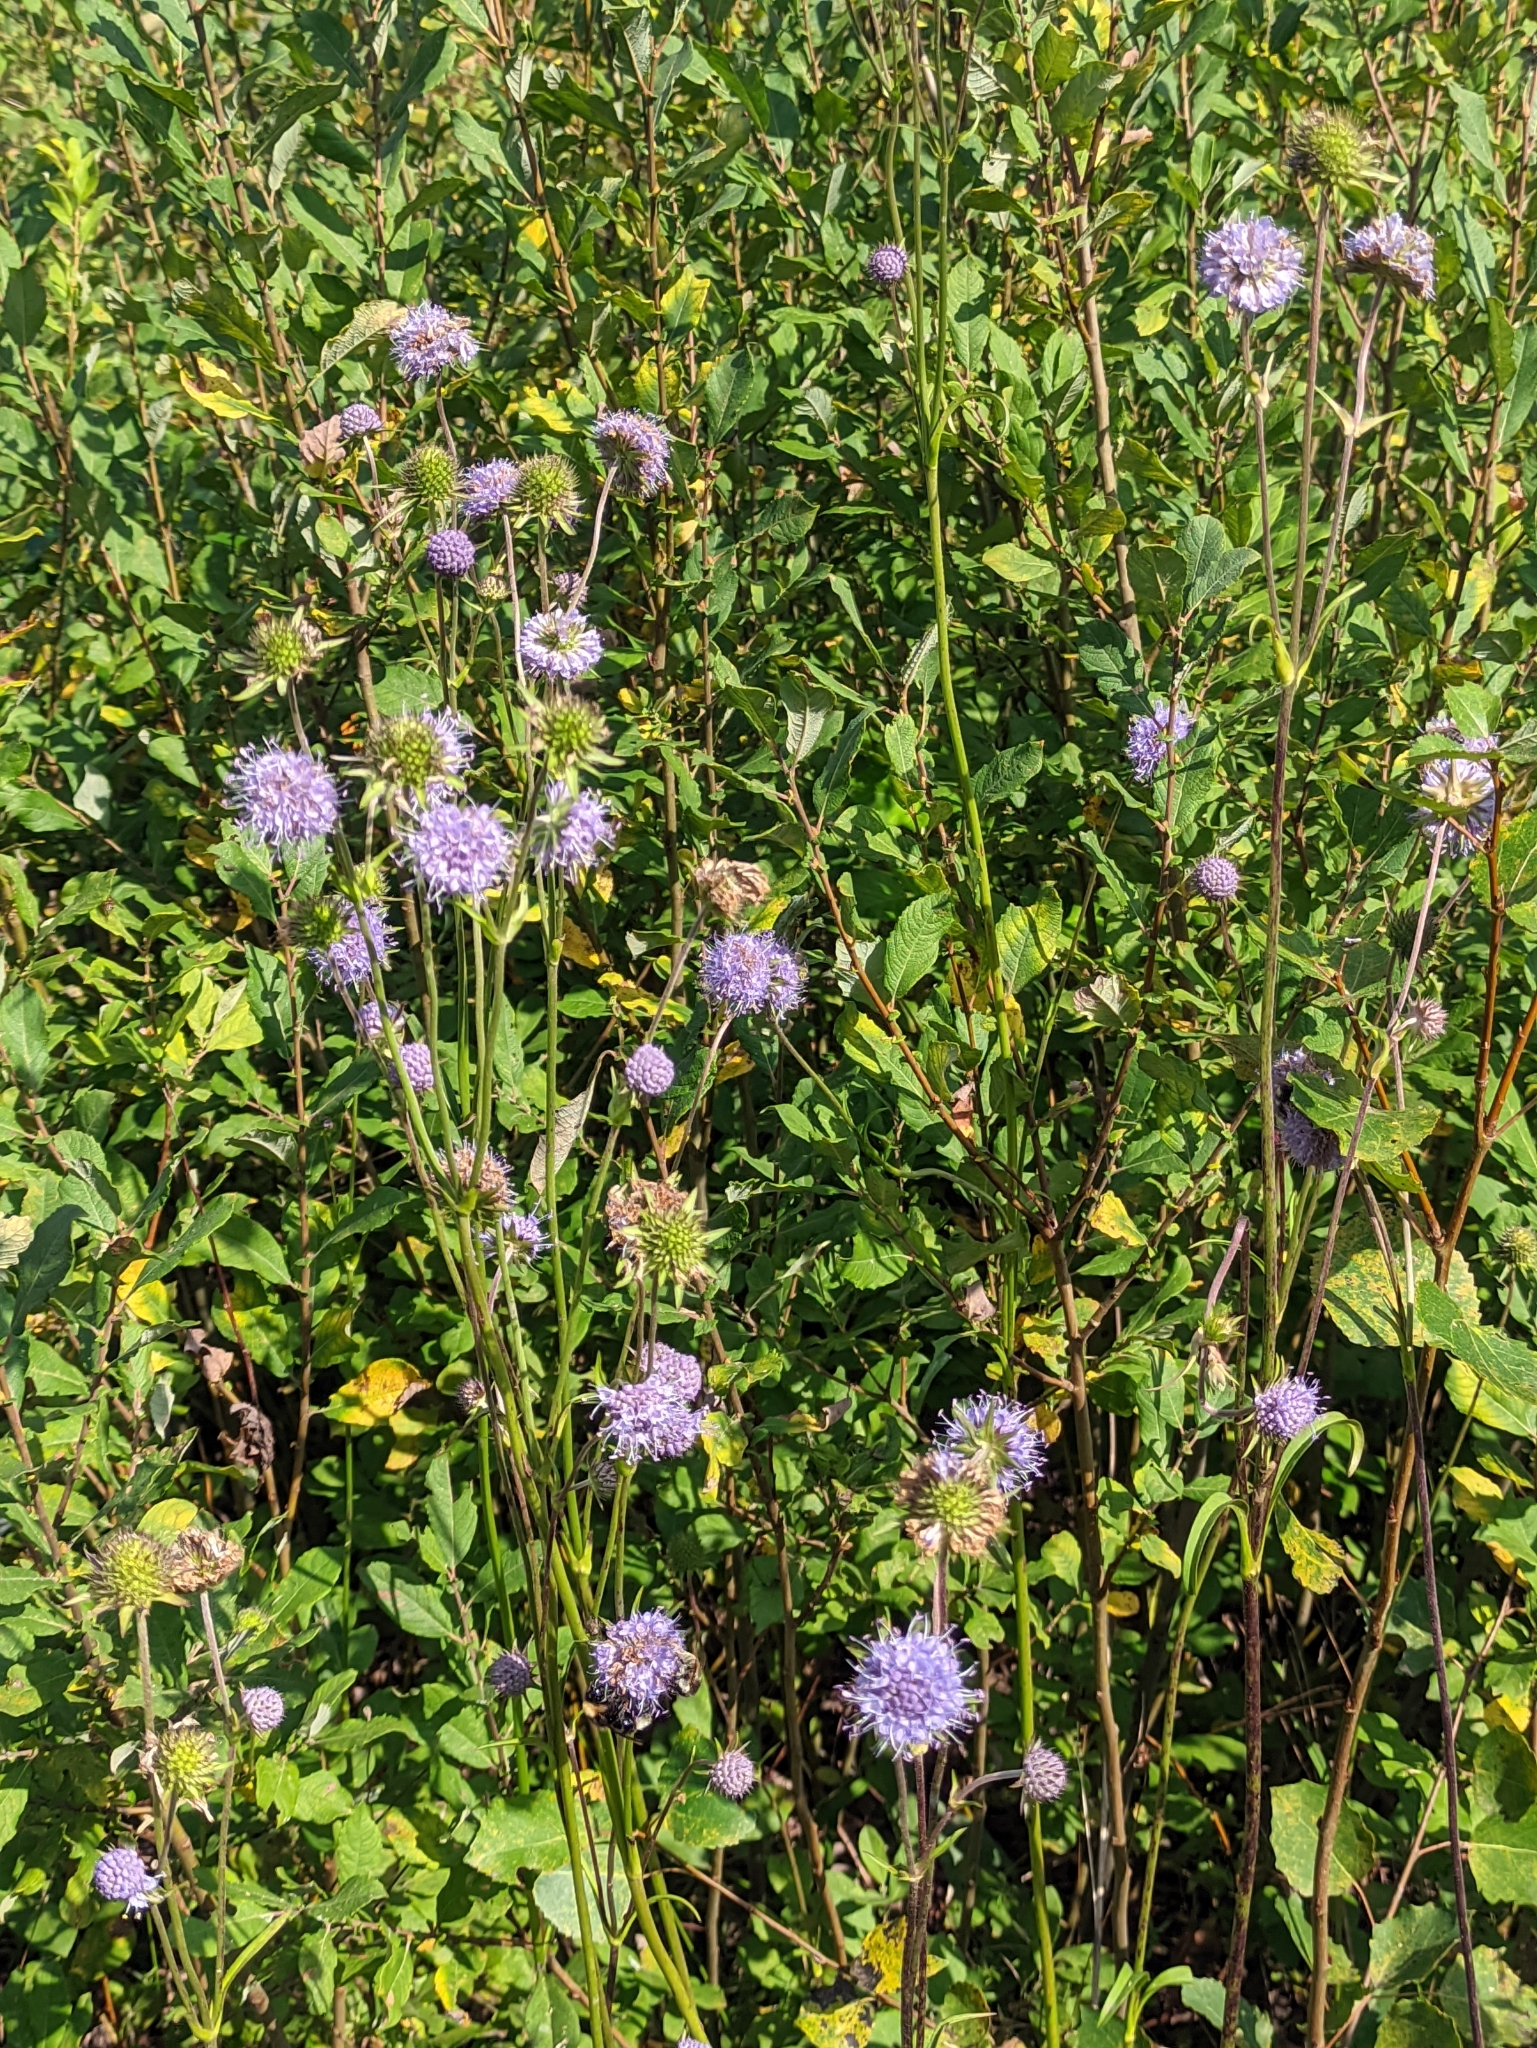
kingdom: Plantae
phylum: Tracheophyta
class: Magnoliopsida
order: Dipsacales
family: Caprifoliaceae
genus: Succisa
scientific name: Succisa pratensis
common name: Devil's-bit
